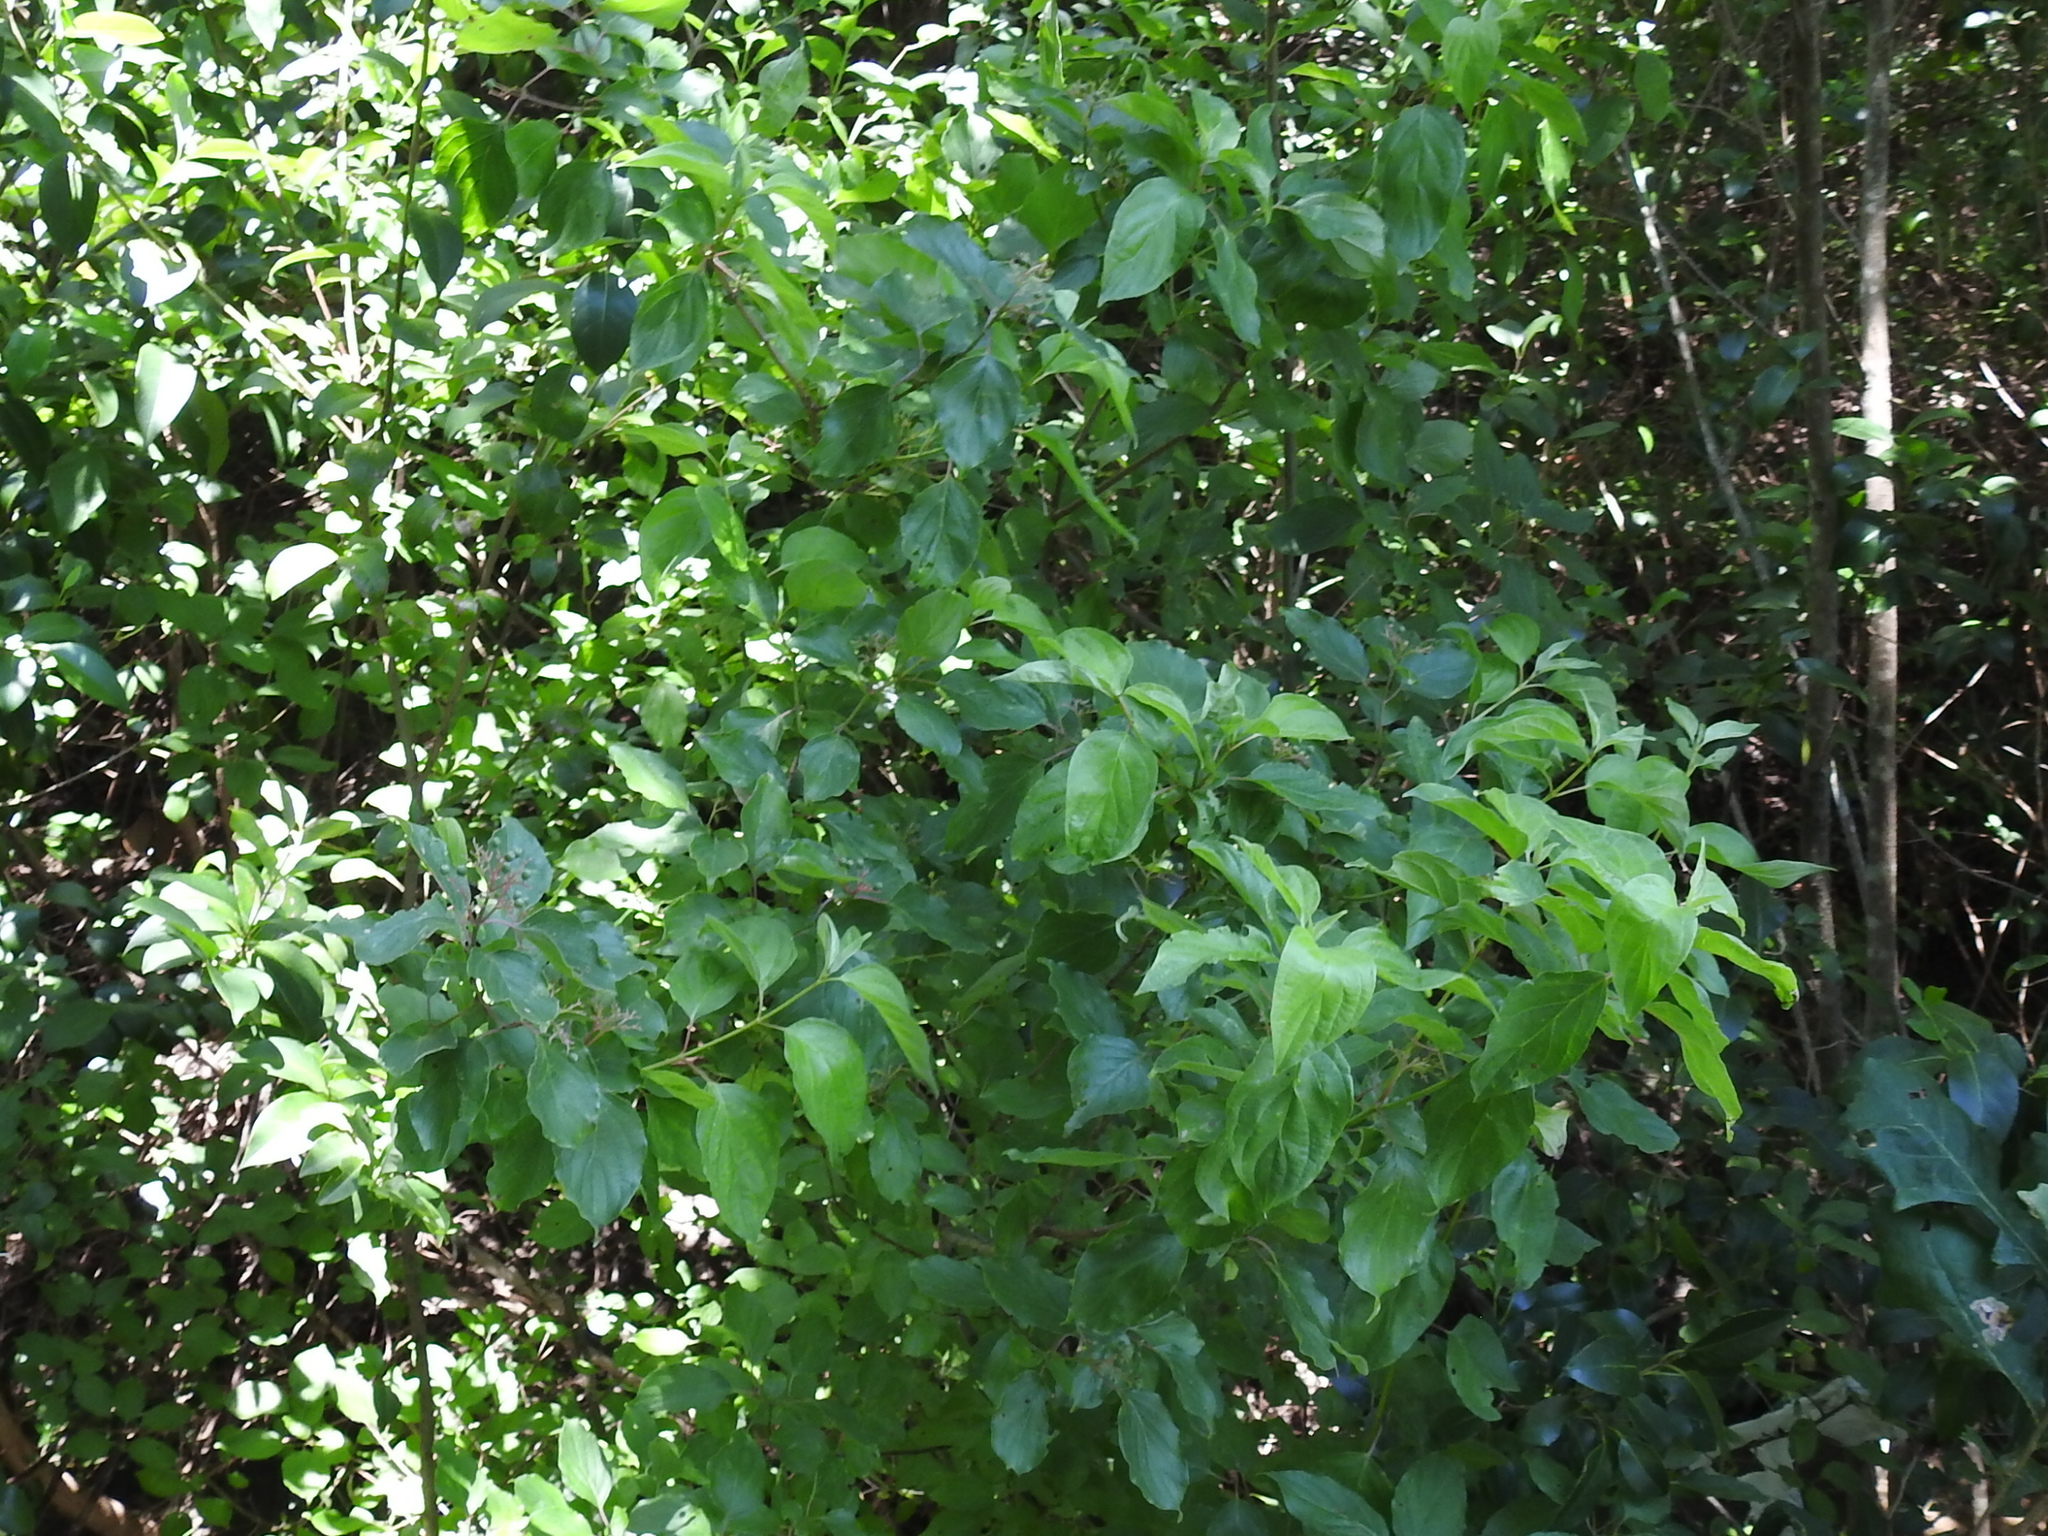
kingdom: Plantae
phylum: Tracheophyta
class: Magnoliopsida
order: Cornales
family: Cornaceae
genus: Cornus
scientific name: Cornus drummondii
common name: Rough-leaf dogwood
